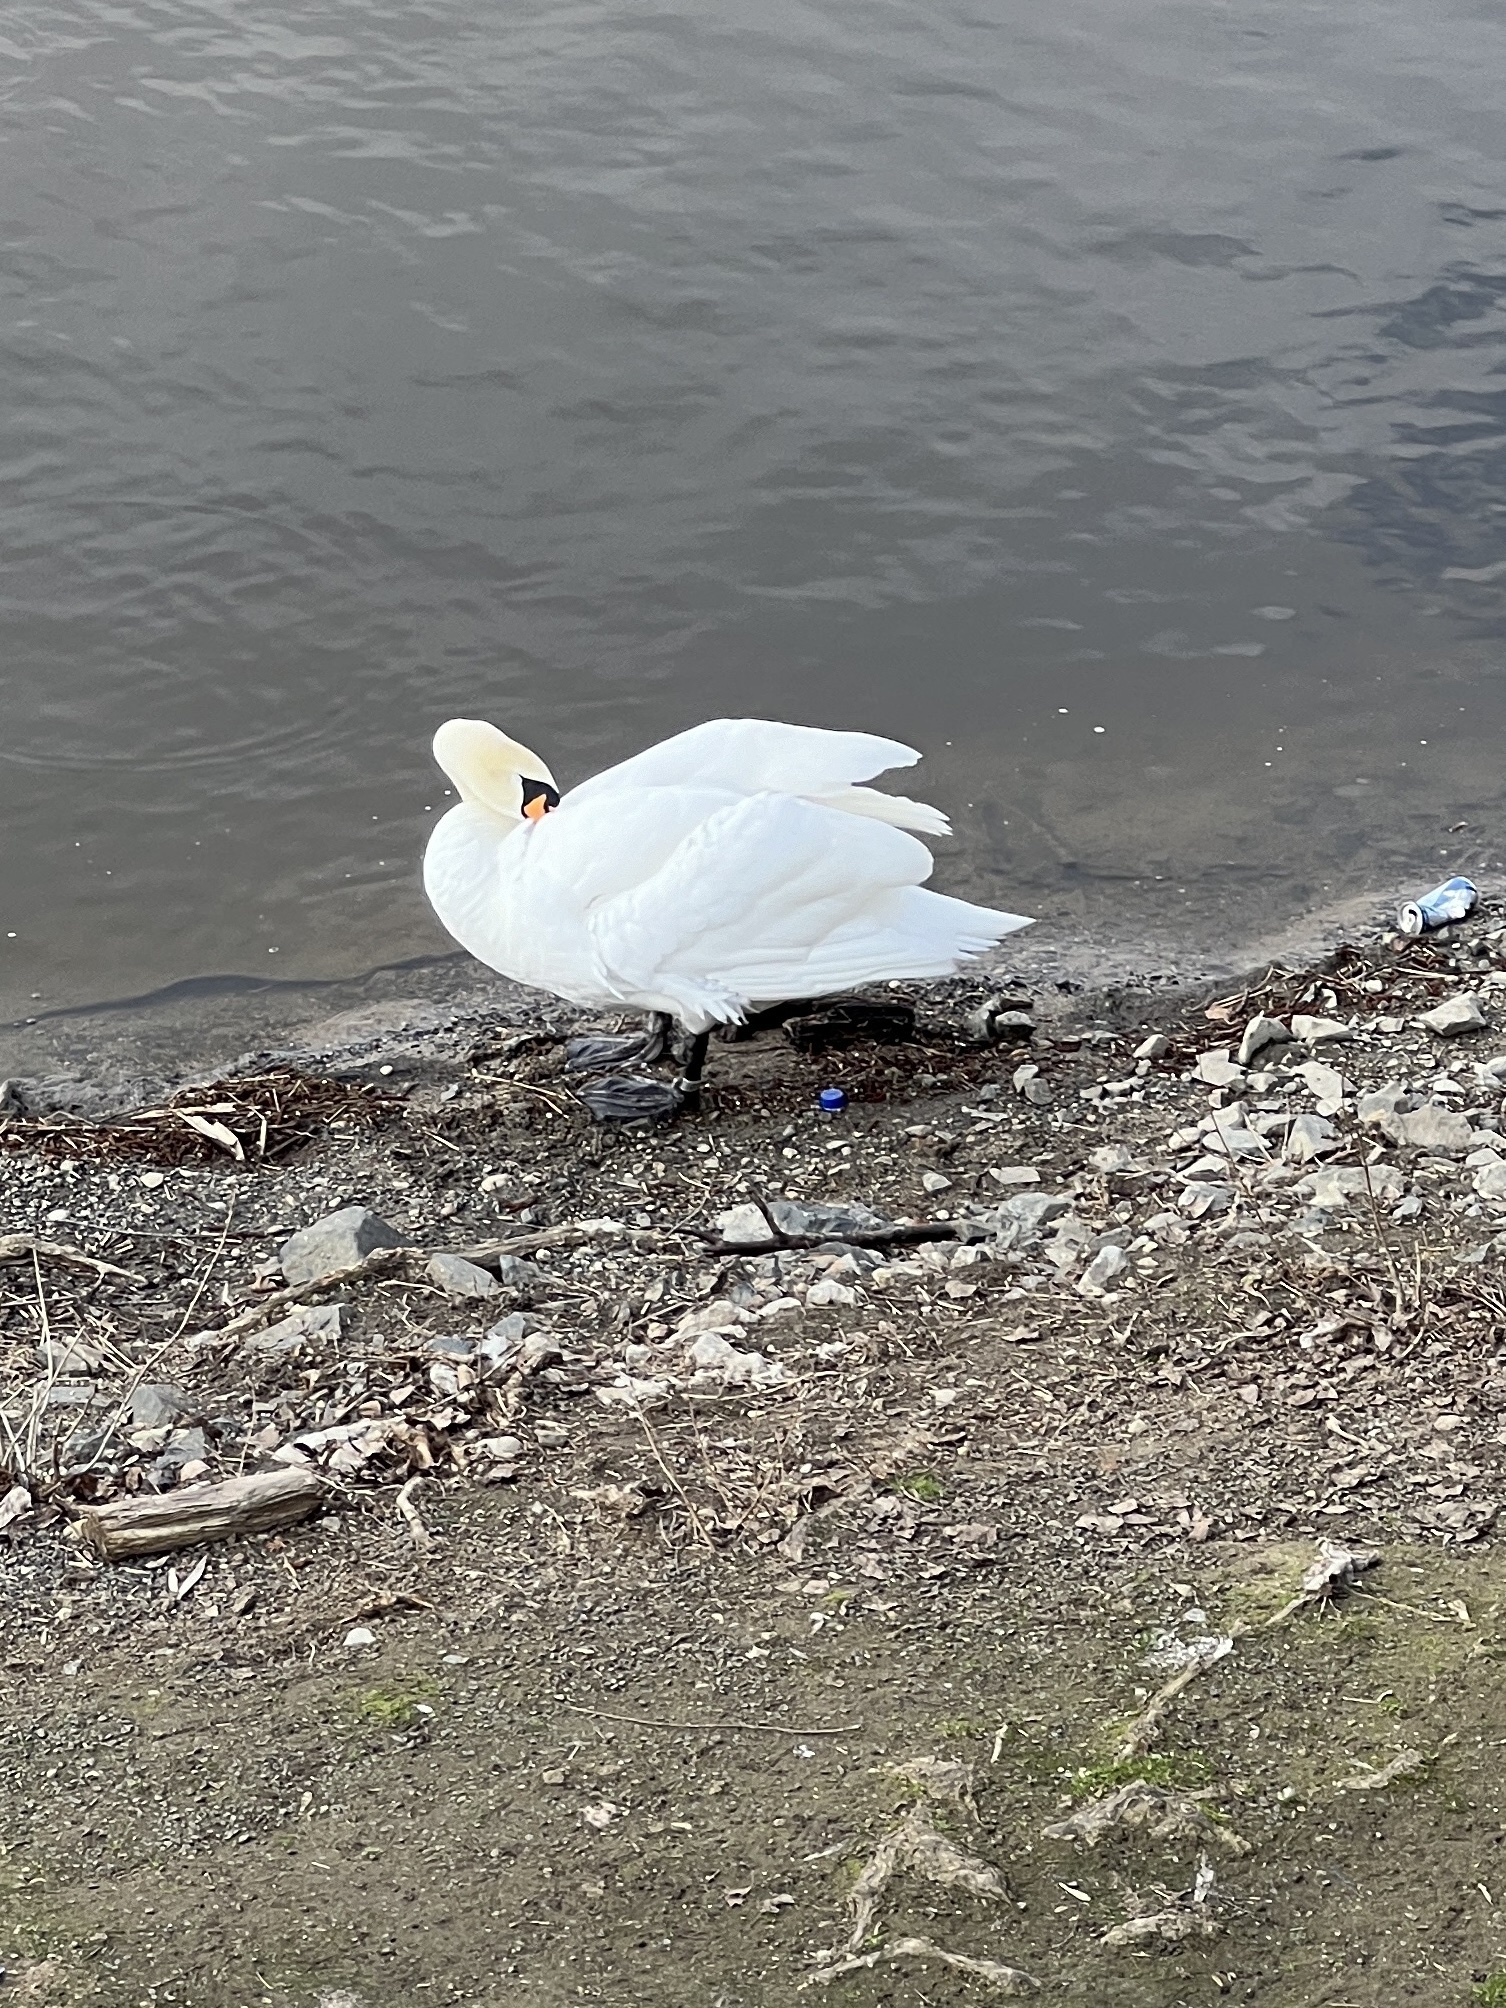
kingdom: Animalia
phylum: Chordata
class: Aves
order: Anseriformes
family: Anatidae
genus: Cygnus
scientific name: Cygnus olor
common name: Mute swan
